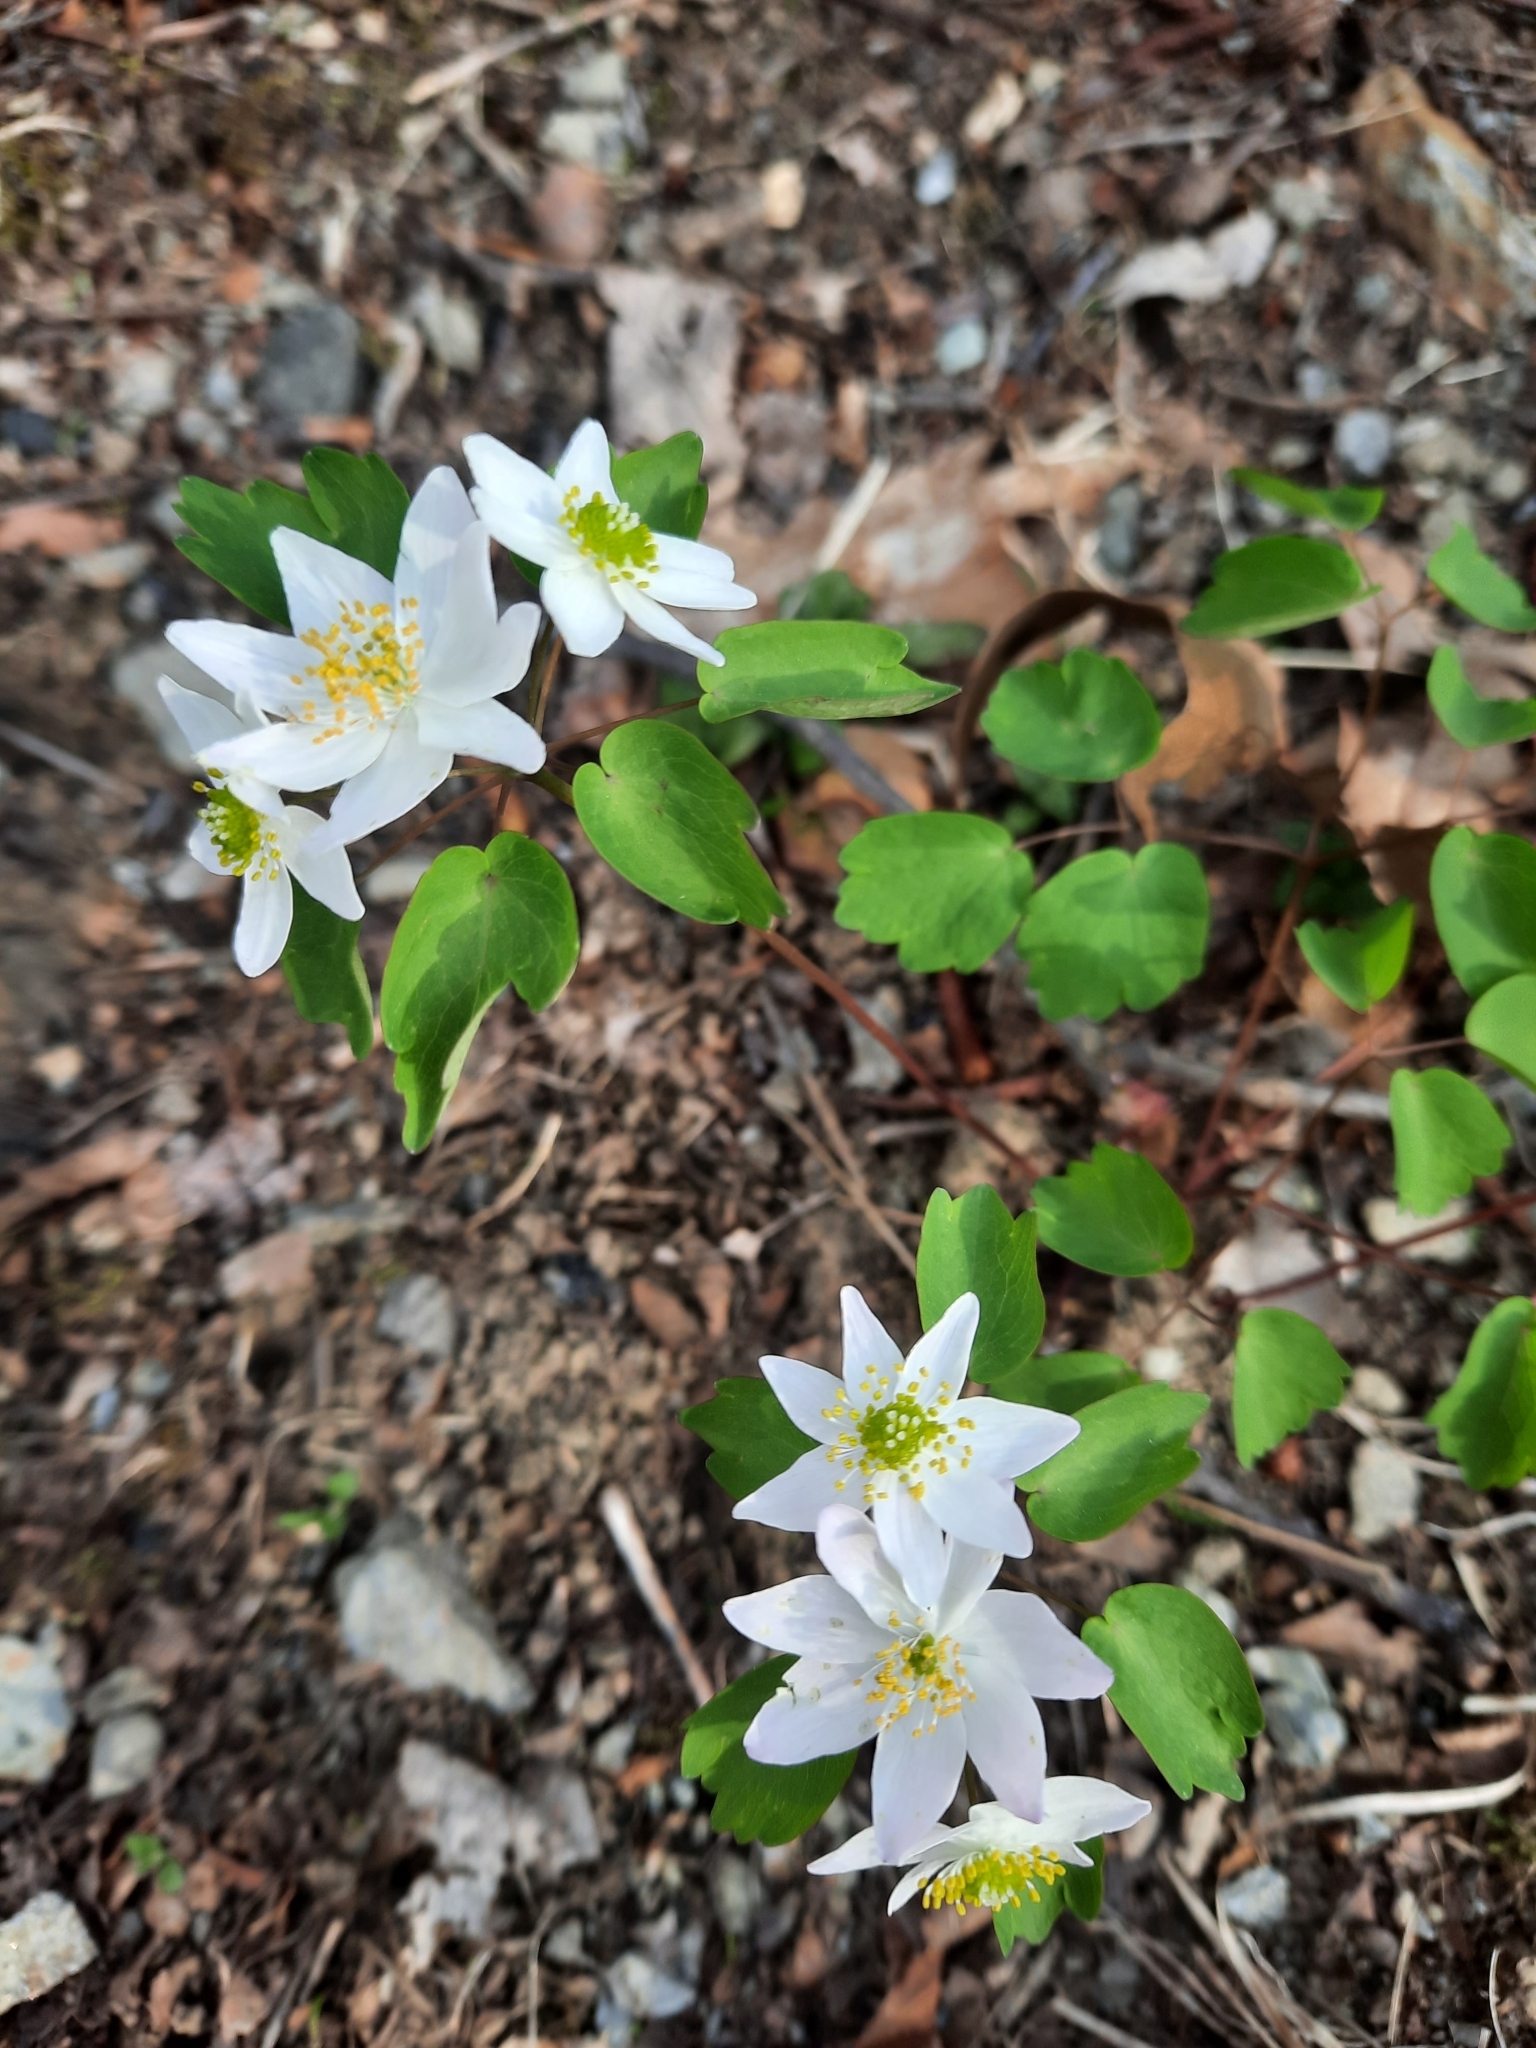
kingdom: Plantae
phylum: Tracheophyta
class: Magnoliopsida
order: Ranunculales
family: Ranunculaceae
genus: Thalictrum
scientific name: Thalictrum thalictroides
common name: Rue-anemone
